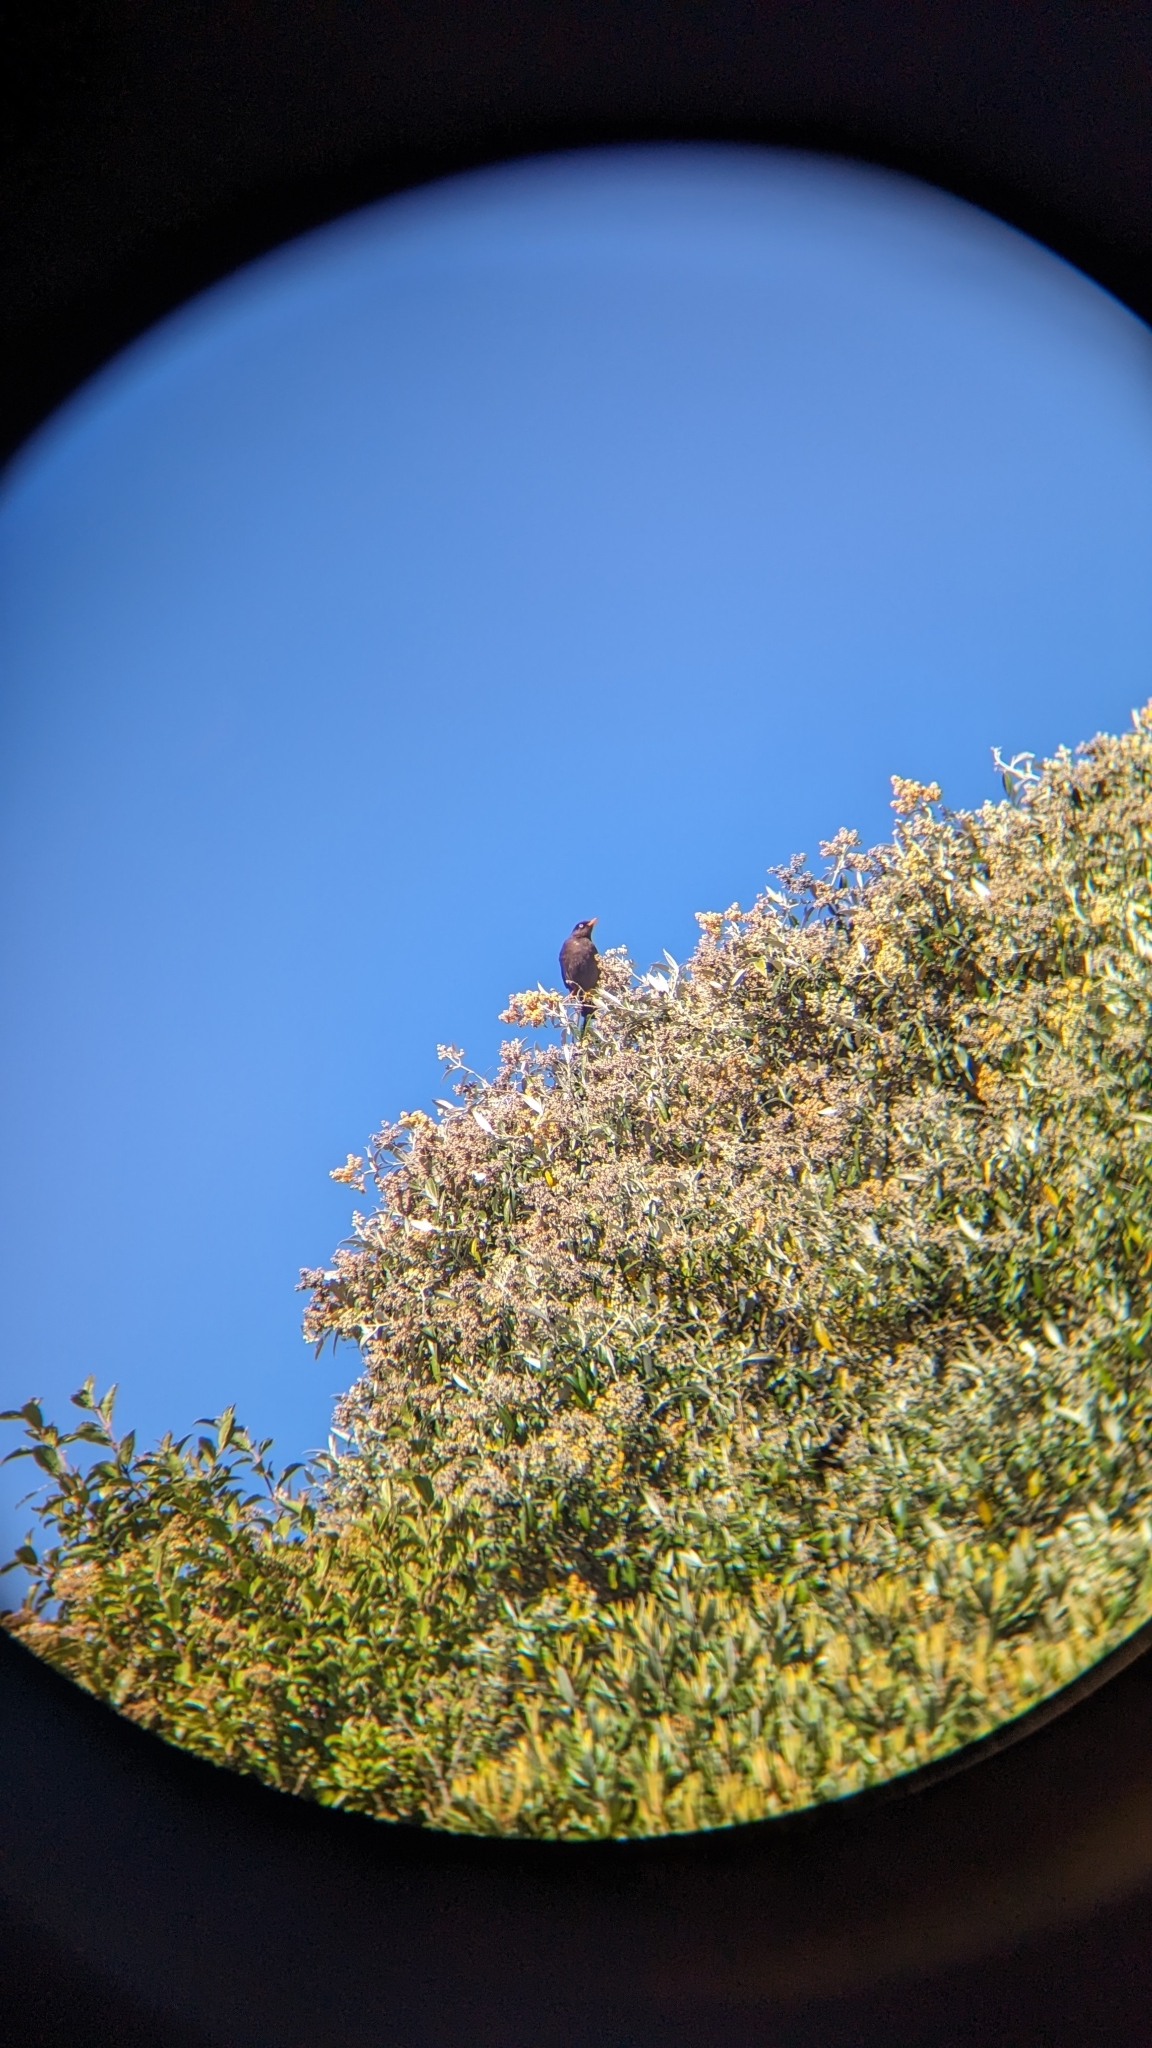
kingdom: Animalia
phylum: Chordata
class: Aves
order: Passeriformes
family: Turdidae
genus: Turdus
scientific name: Turdus nigrescens
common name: Sooty thrush
